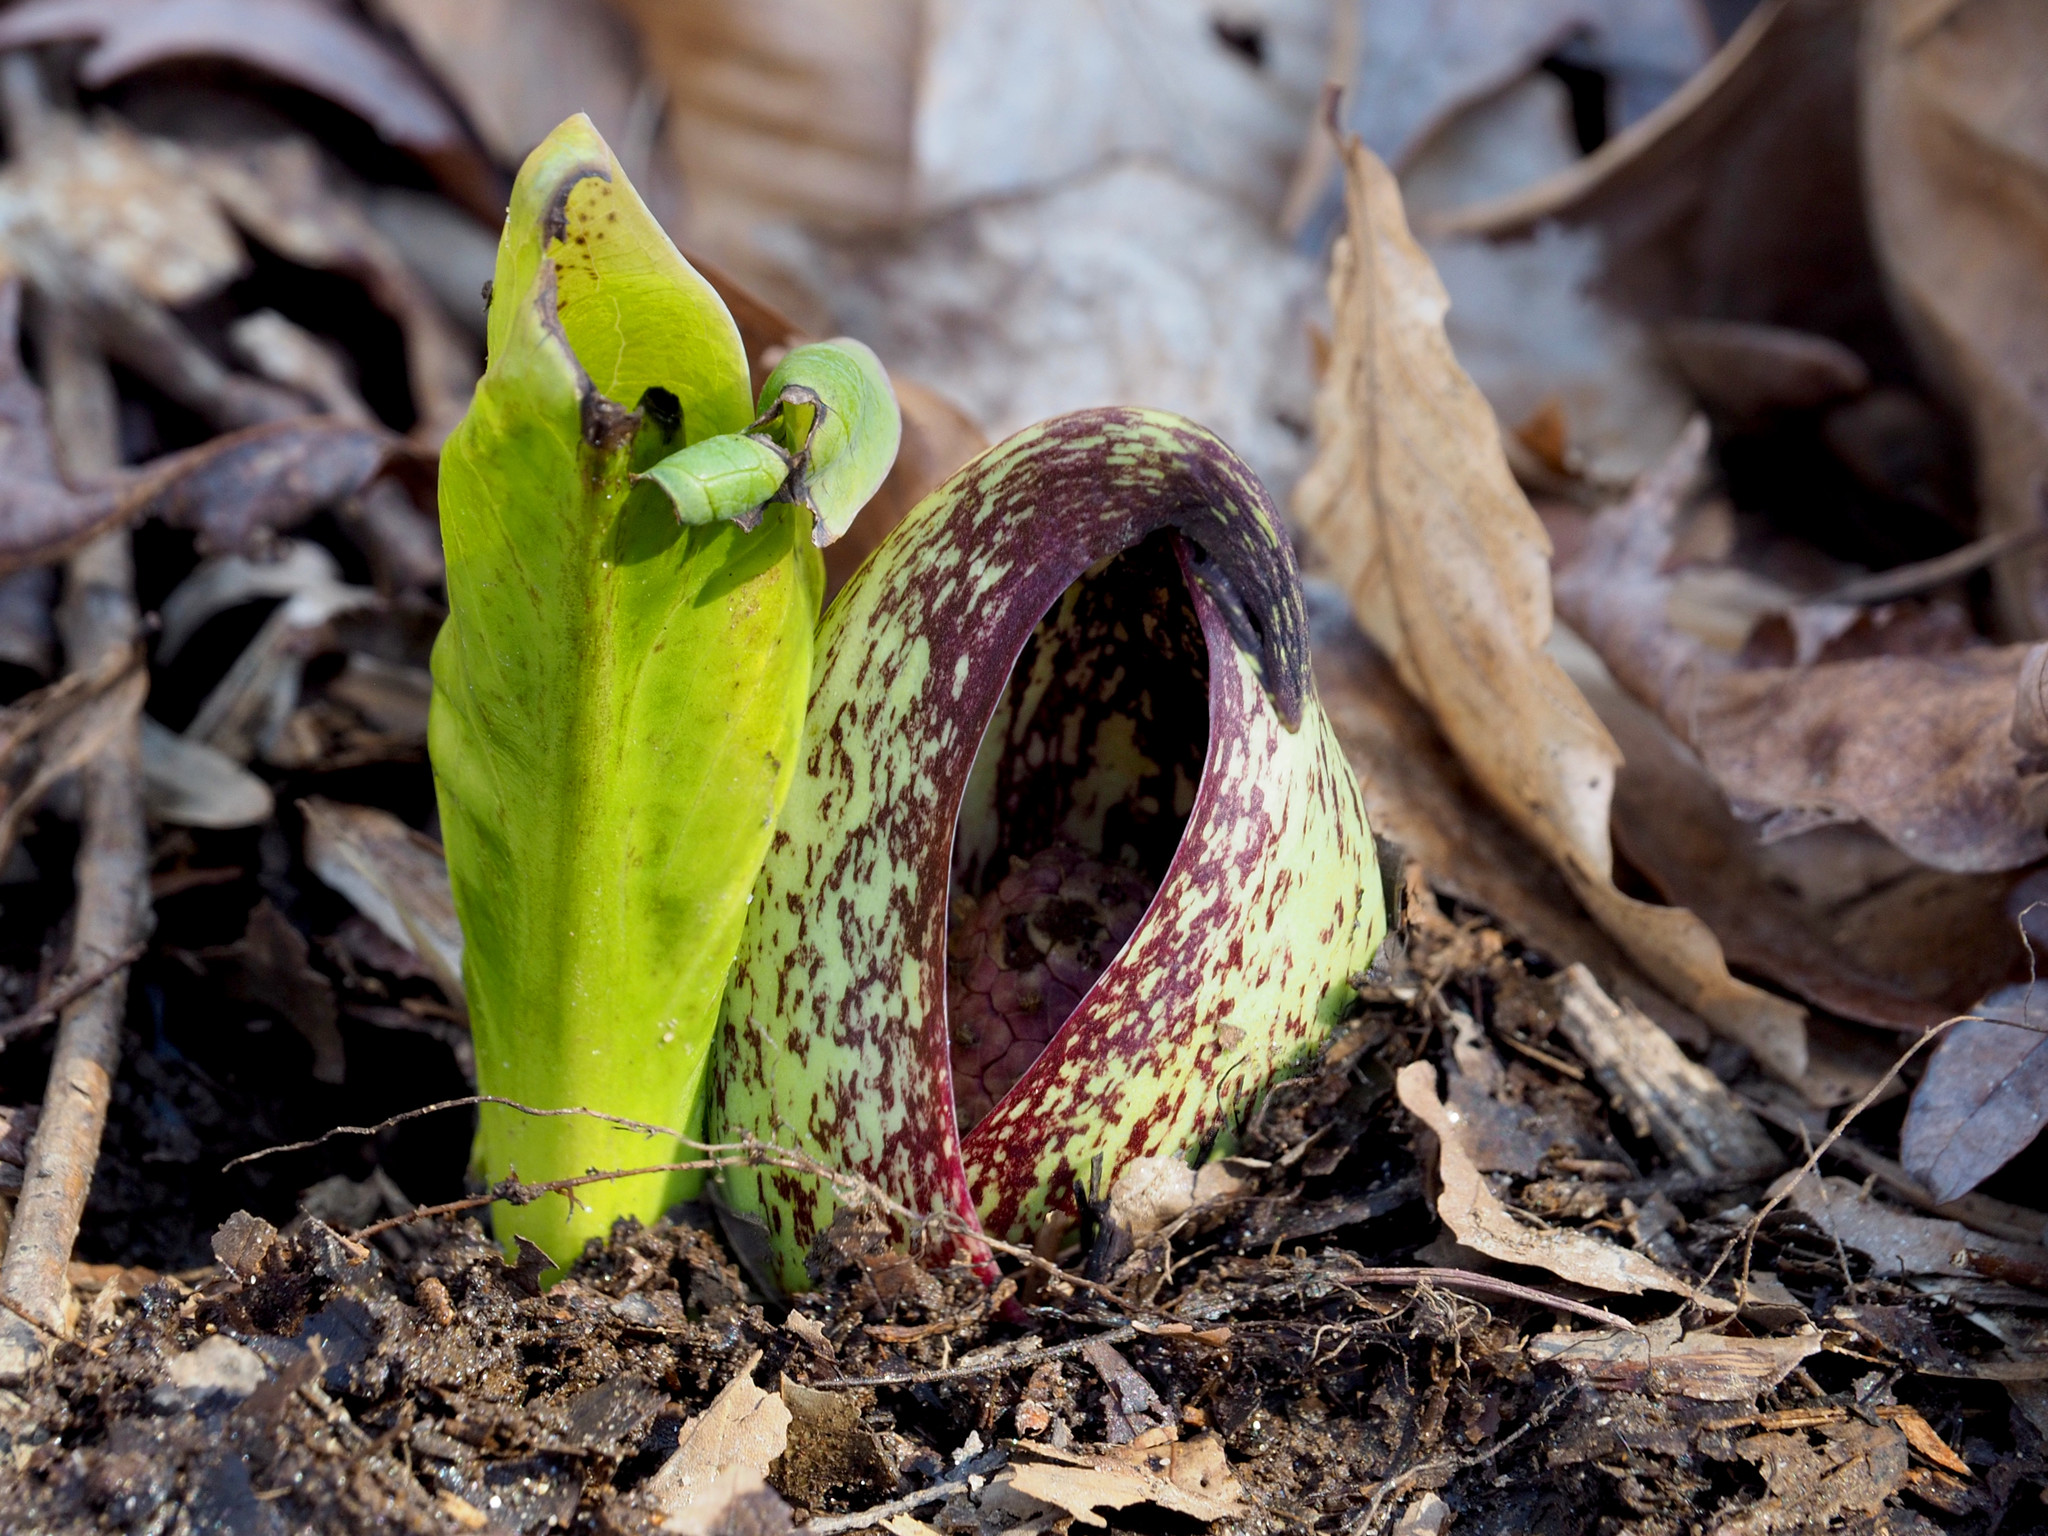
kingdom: Plantae
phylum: Tracheophyta
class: Liliopsida
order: Alismatales
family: Araceae
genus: Symplocarpus
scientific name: Symplocarpus foetidus
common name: Eastern skunk cabbage
